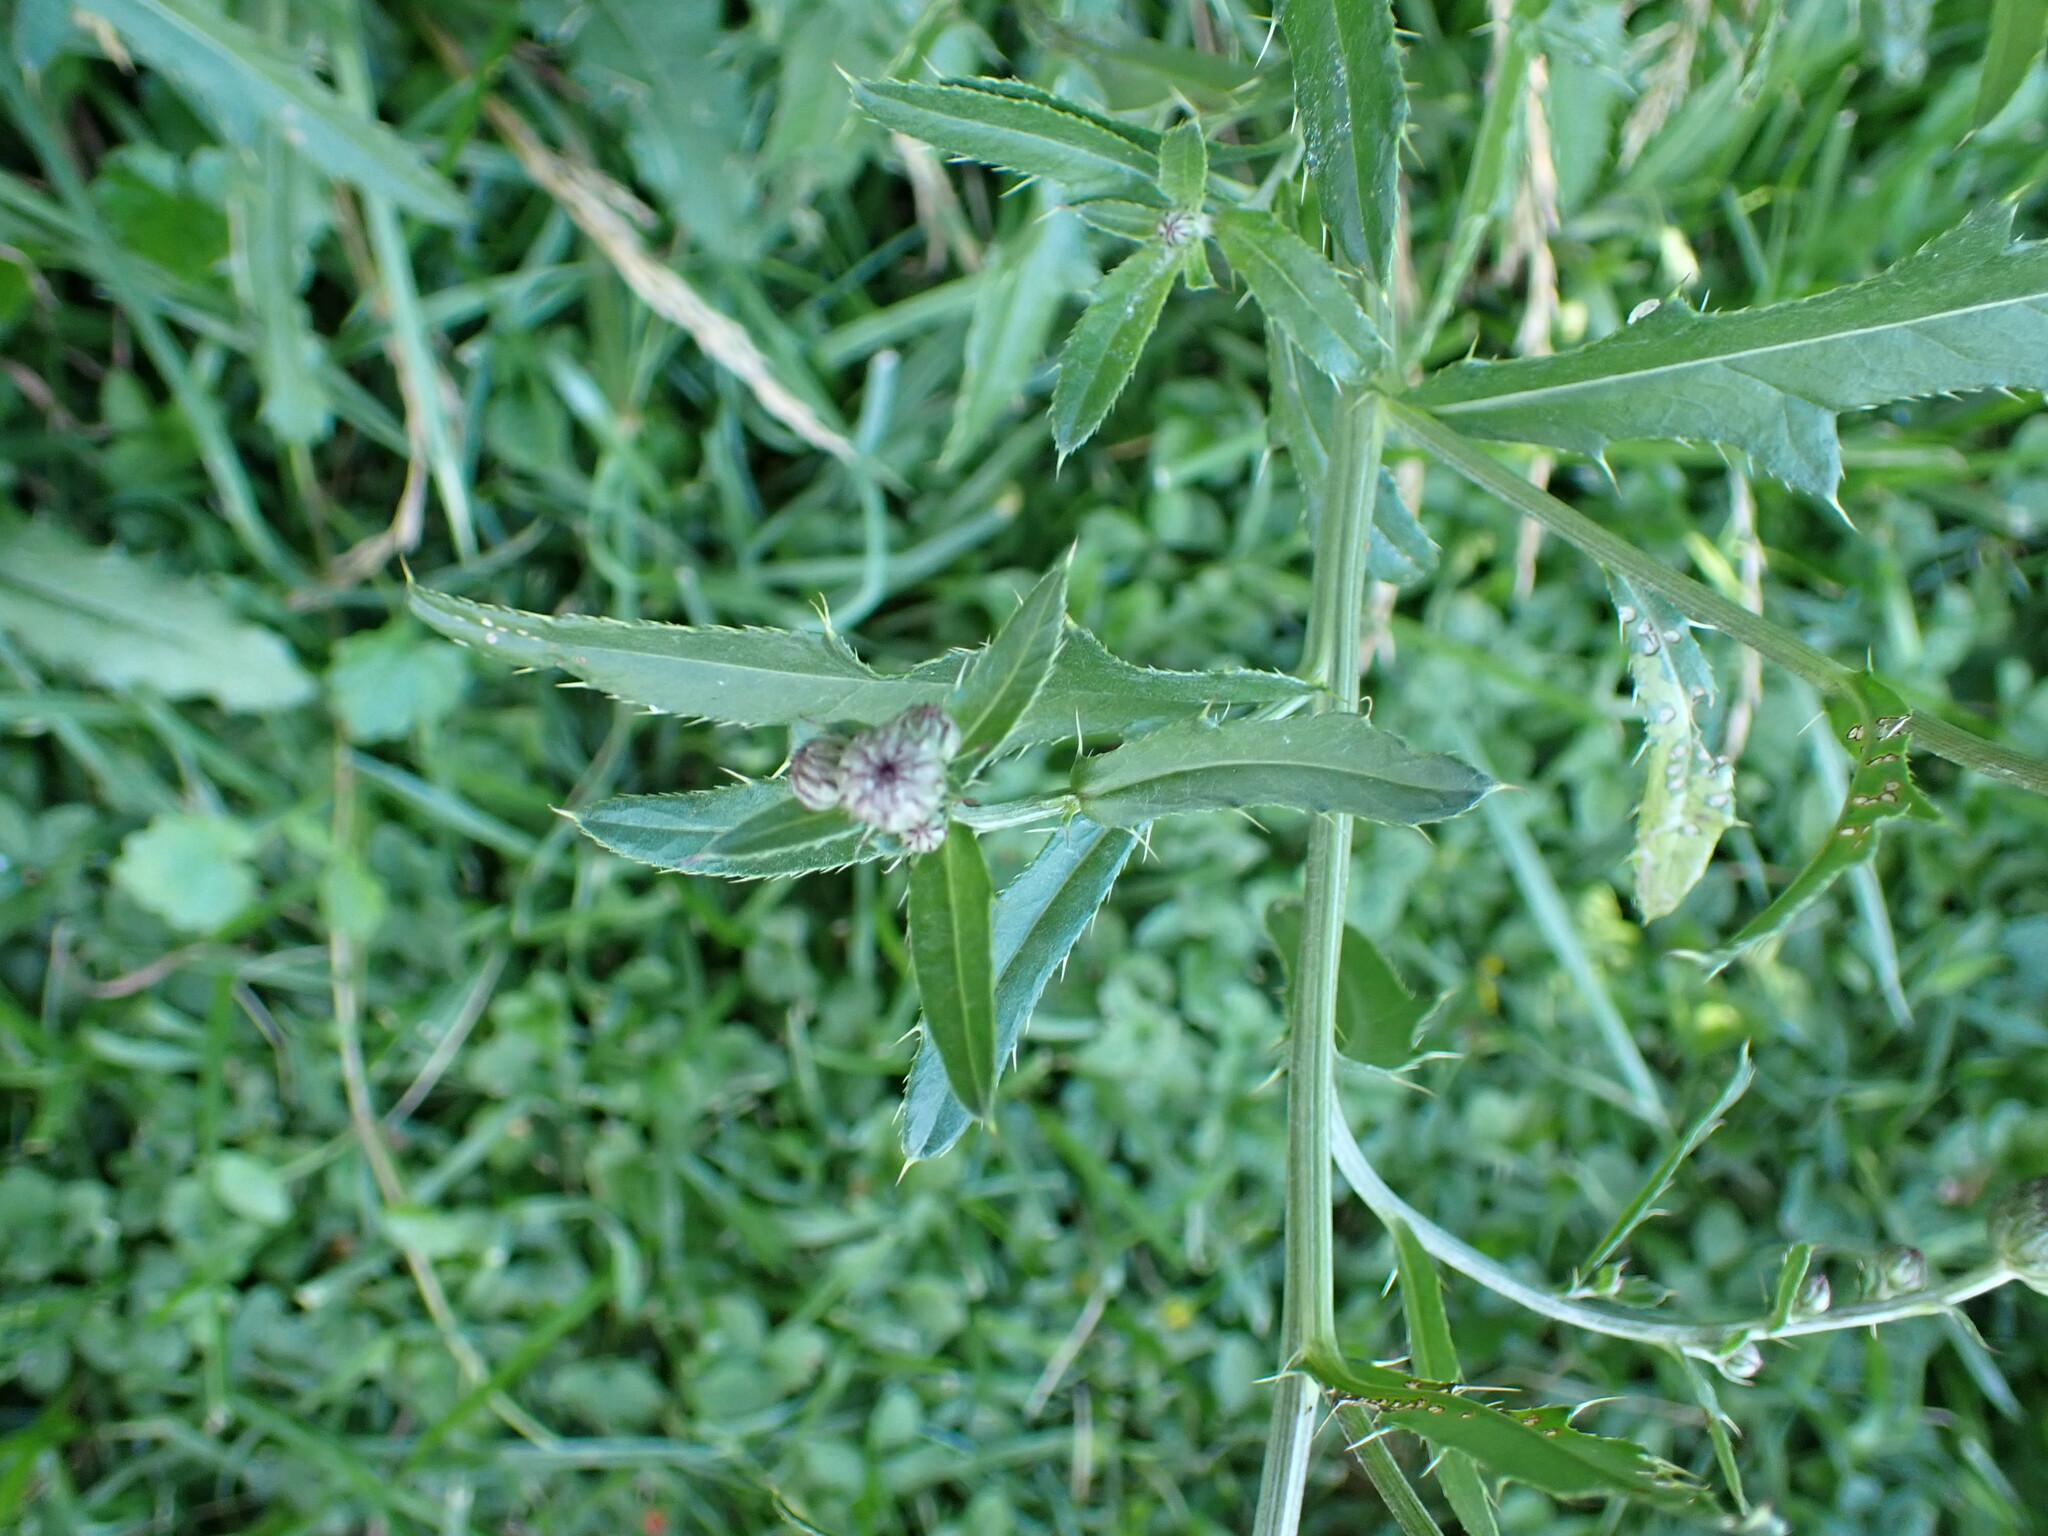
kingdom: Plantae
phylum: Tracheophyta
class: Magnoliopsida
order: Asterales
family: Asteraceae
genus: Cirsium
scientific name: Cirsium arvense
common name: Creeping thistle
